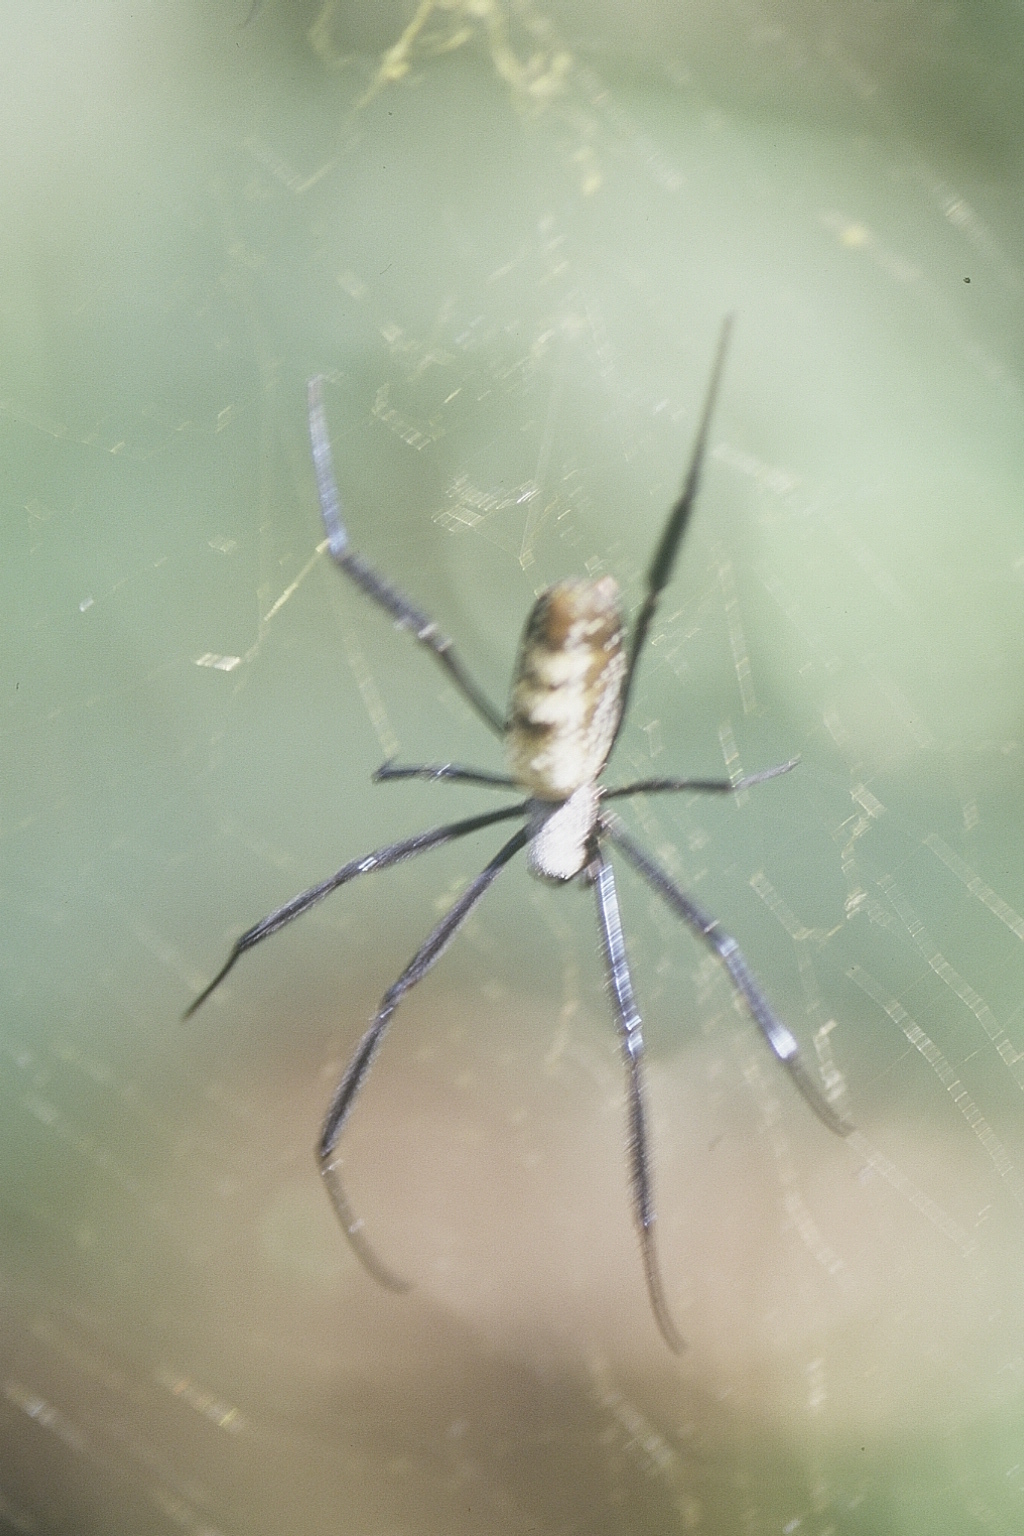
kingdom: Animalia
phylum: Arthropoda
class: Arachnida
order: Araneae
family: Araneidae
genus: Trichonephila
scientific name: Trichonephila fenestrata
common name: Hairy golden orb weaver
